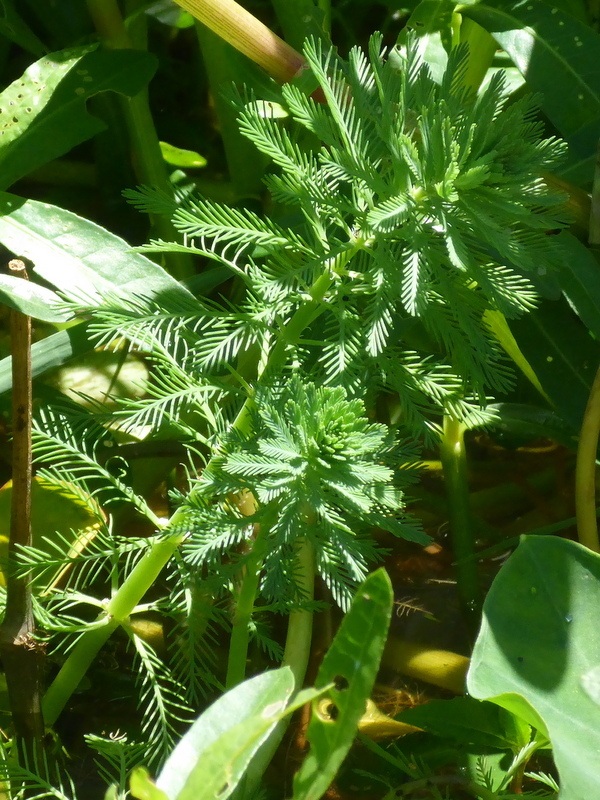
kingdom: Plantae
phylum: Tracheophyta
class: Magnoliopsida
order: Saxifragales
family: Haloragaceae
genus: Myriophyllum
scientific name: Myriophyllum aquaticum
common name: Parrot's feather
